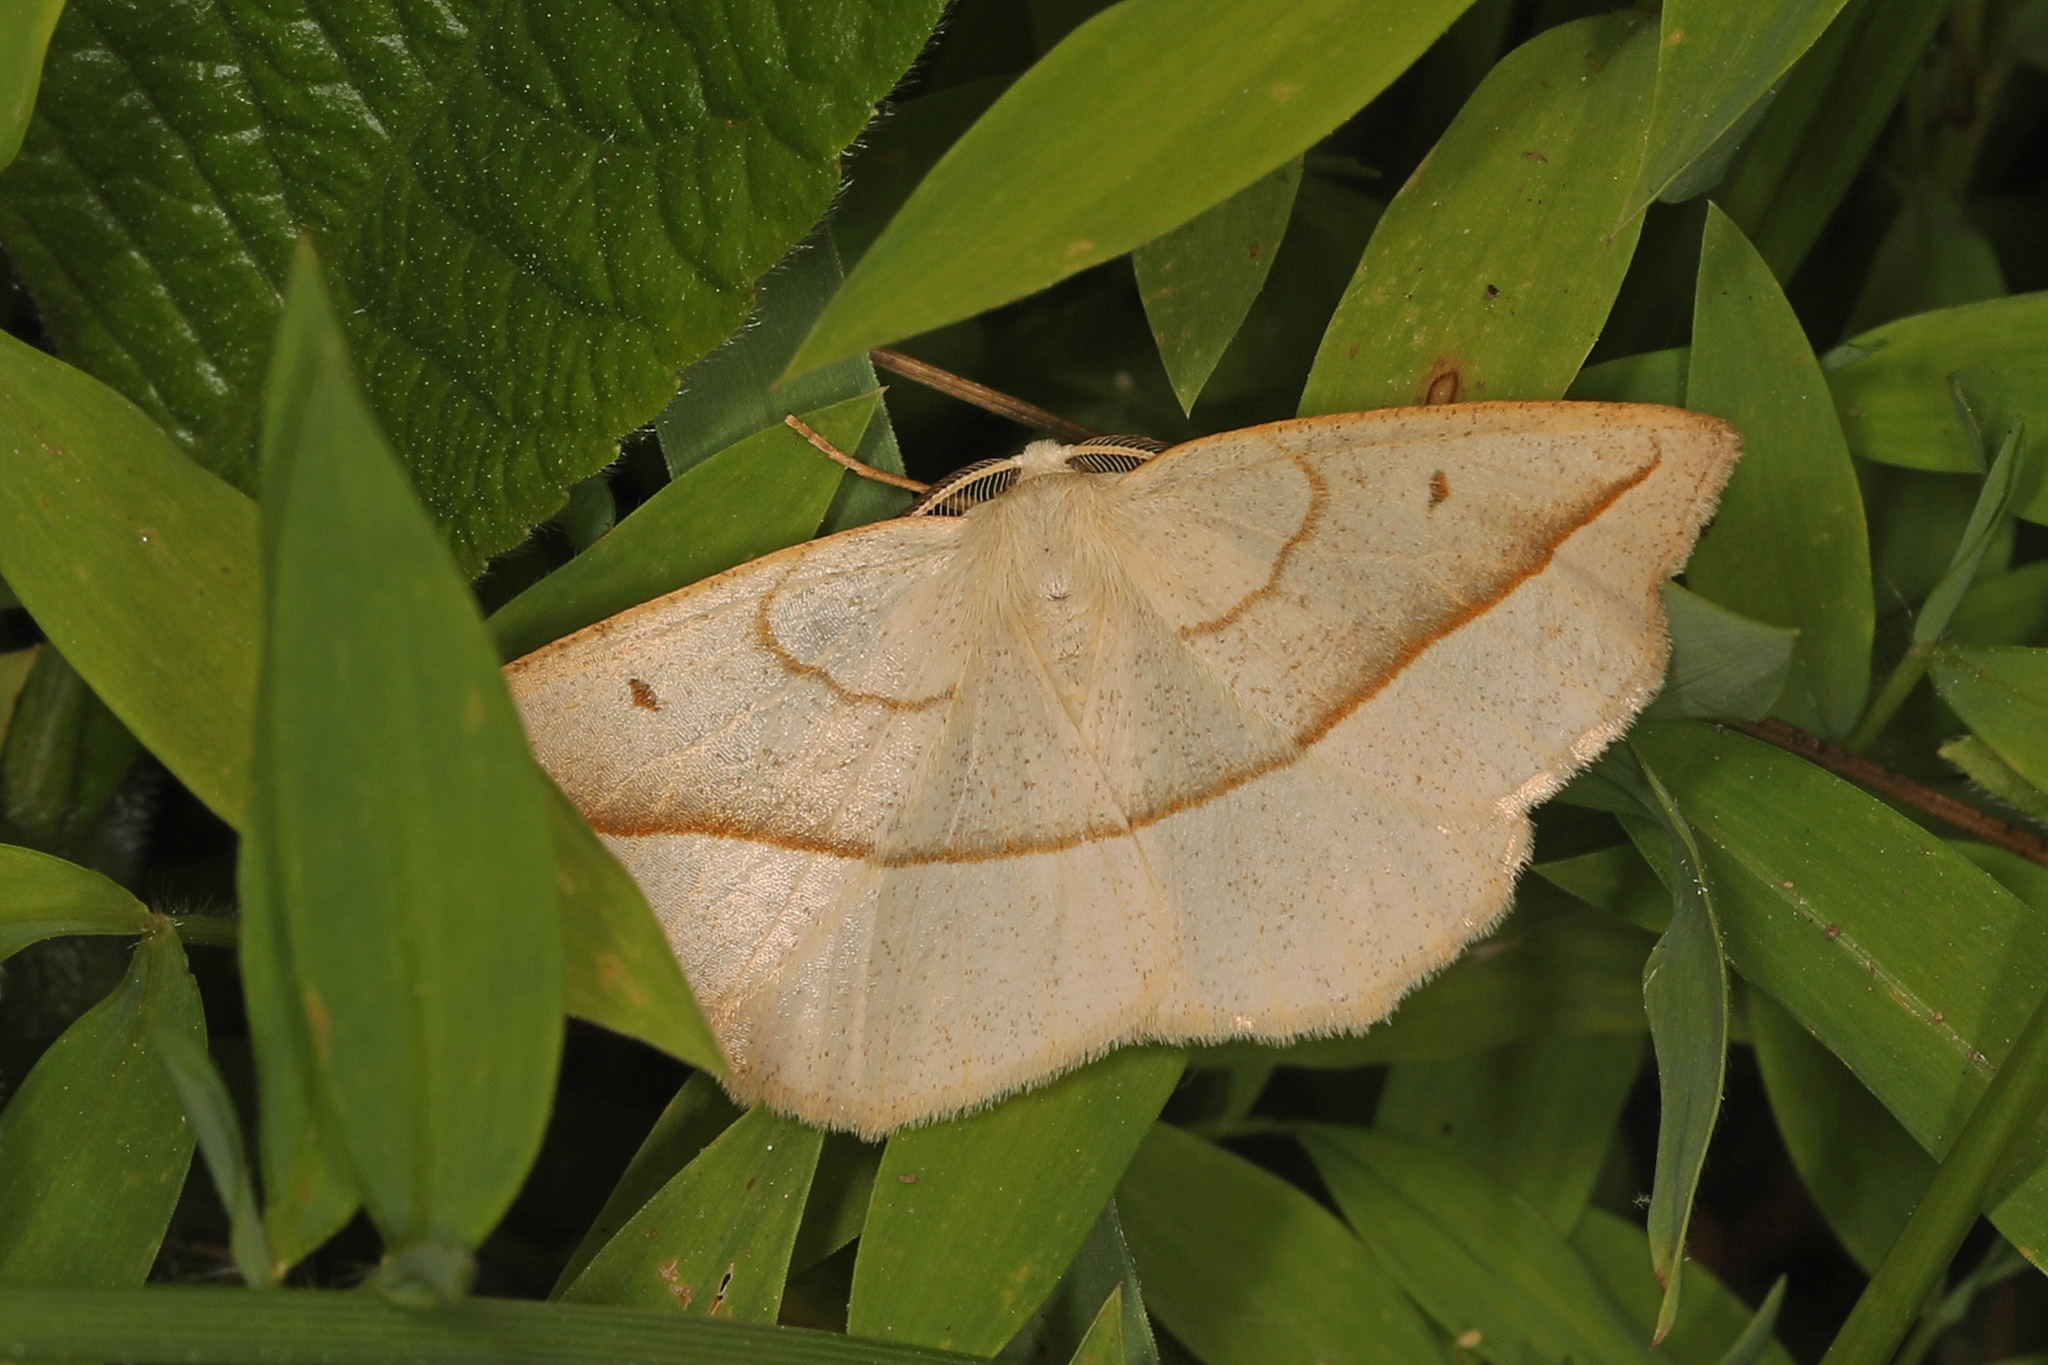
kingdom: Animalia
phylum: Arthropoda
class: Insecta
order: Lepidoptera
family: Geometridae
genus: Eusarca
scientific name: Eusarca confusaria
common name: Confused eusarca
